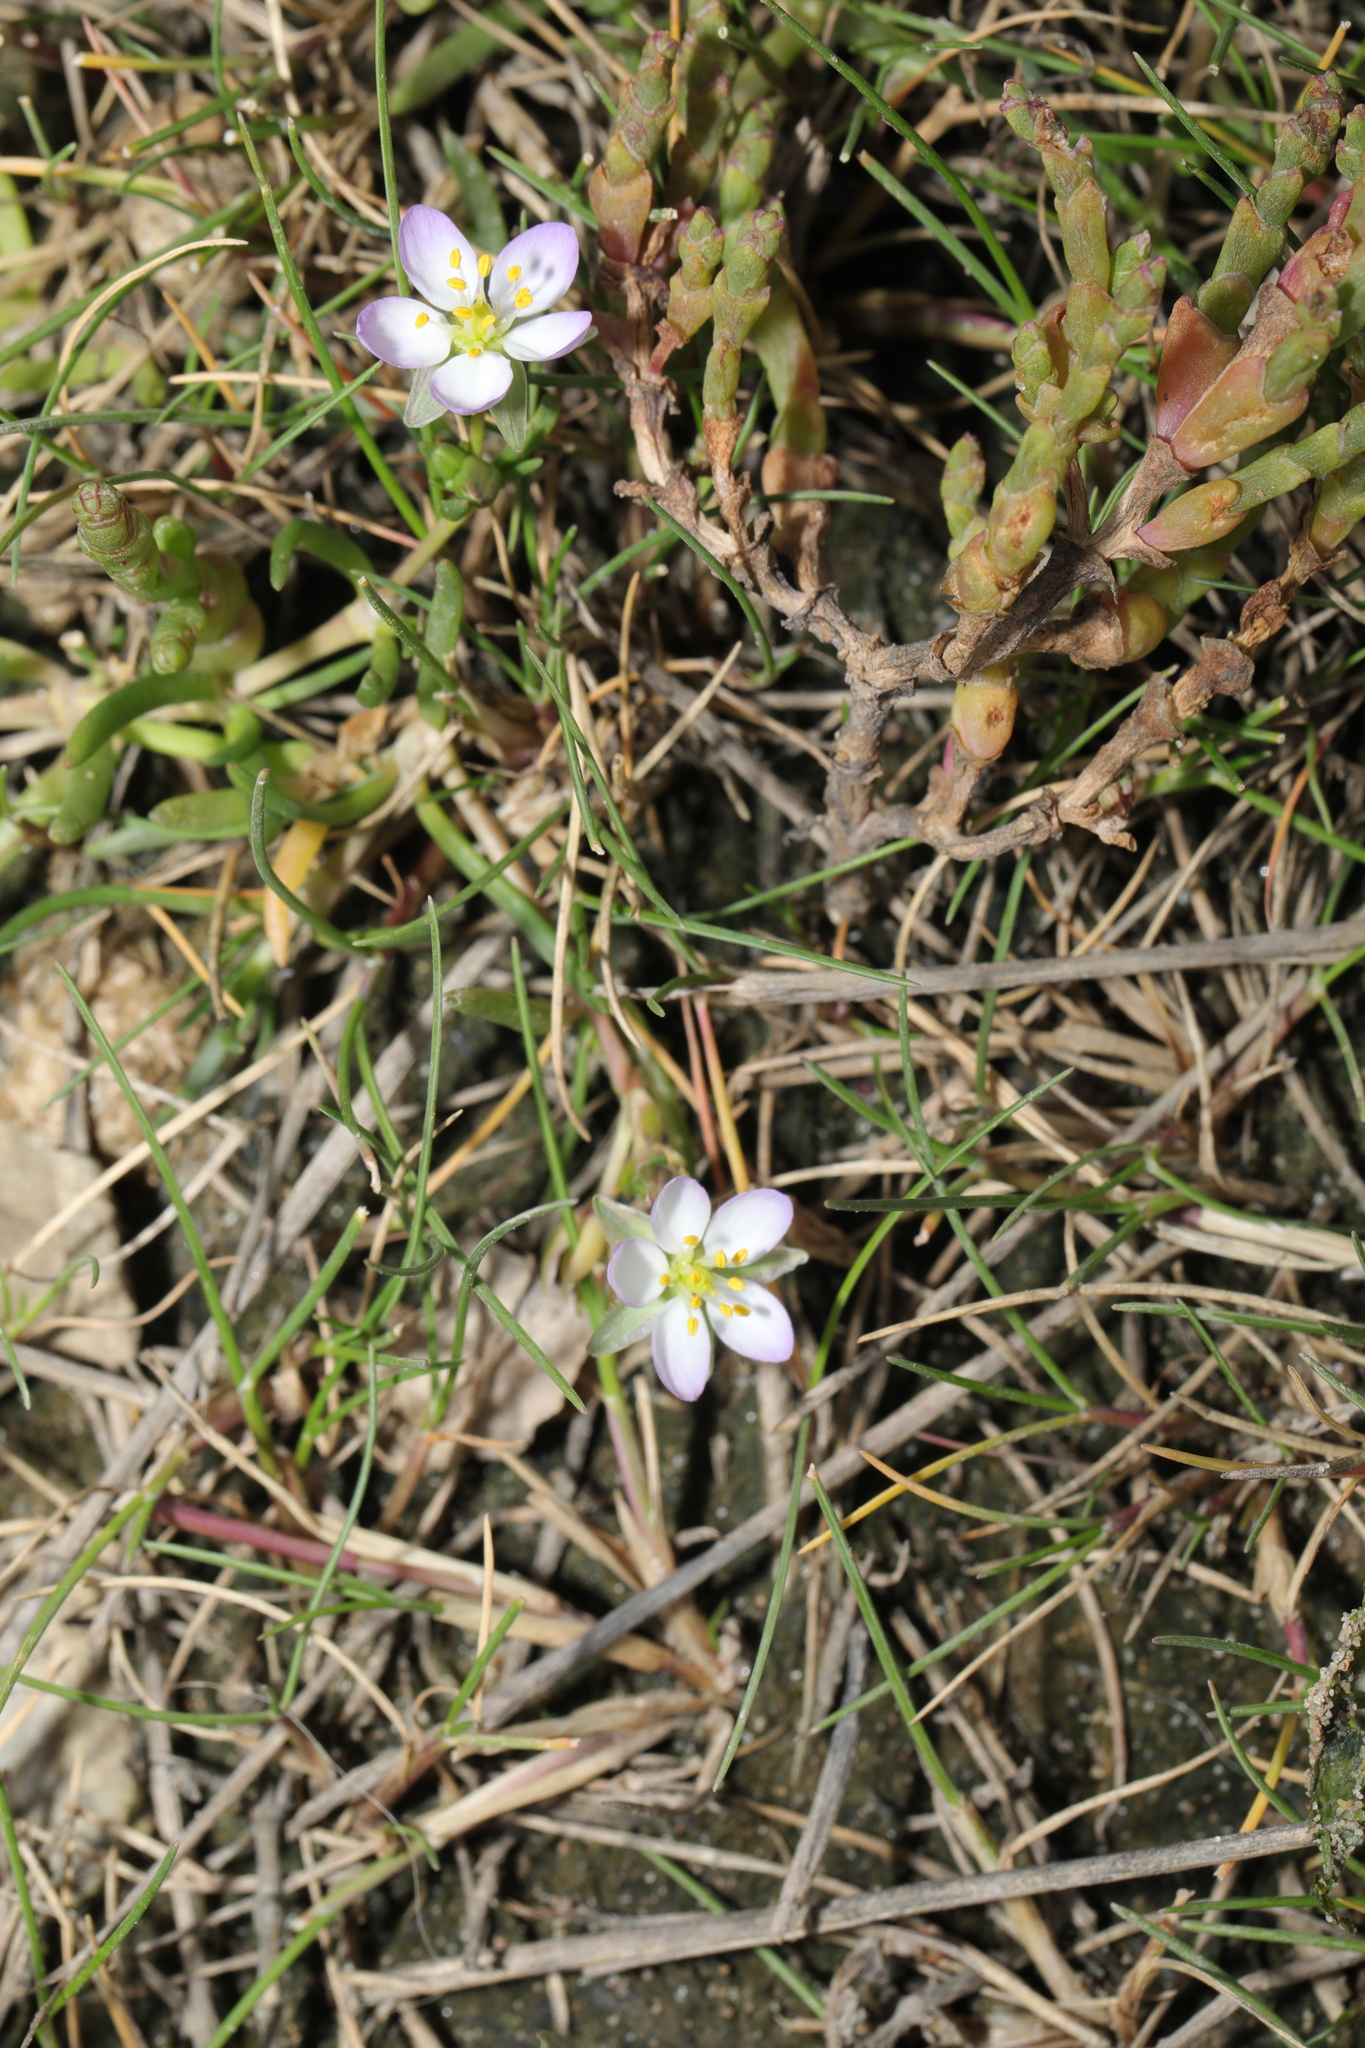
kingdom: Plantae
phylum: Tracheophyta
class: Magnoliopsida
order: Caryophyllales
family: Caryophyllaceae
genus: Spergularia
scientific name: Spergularia marina
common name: Lesser sea-spurrey
